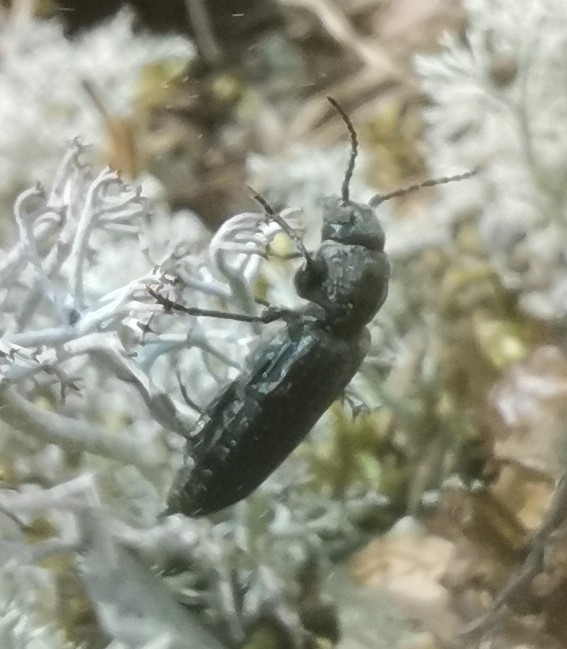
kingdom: Animalia
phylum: Arthropoda
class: Insecta
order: Coleoptera
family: Cerambycidae
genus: Asemum
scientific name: Asemum striatum
